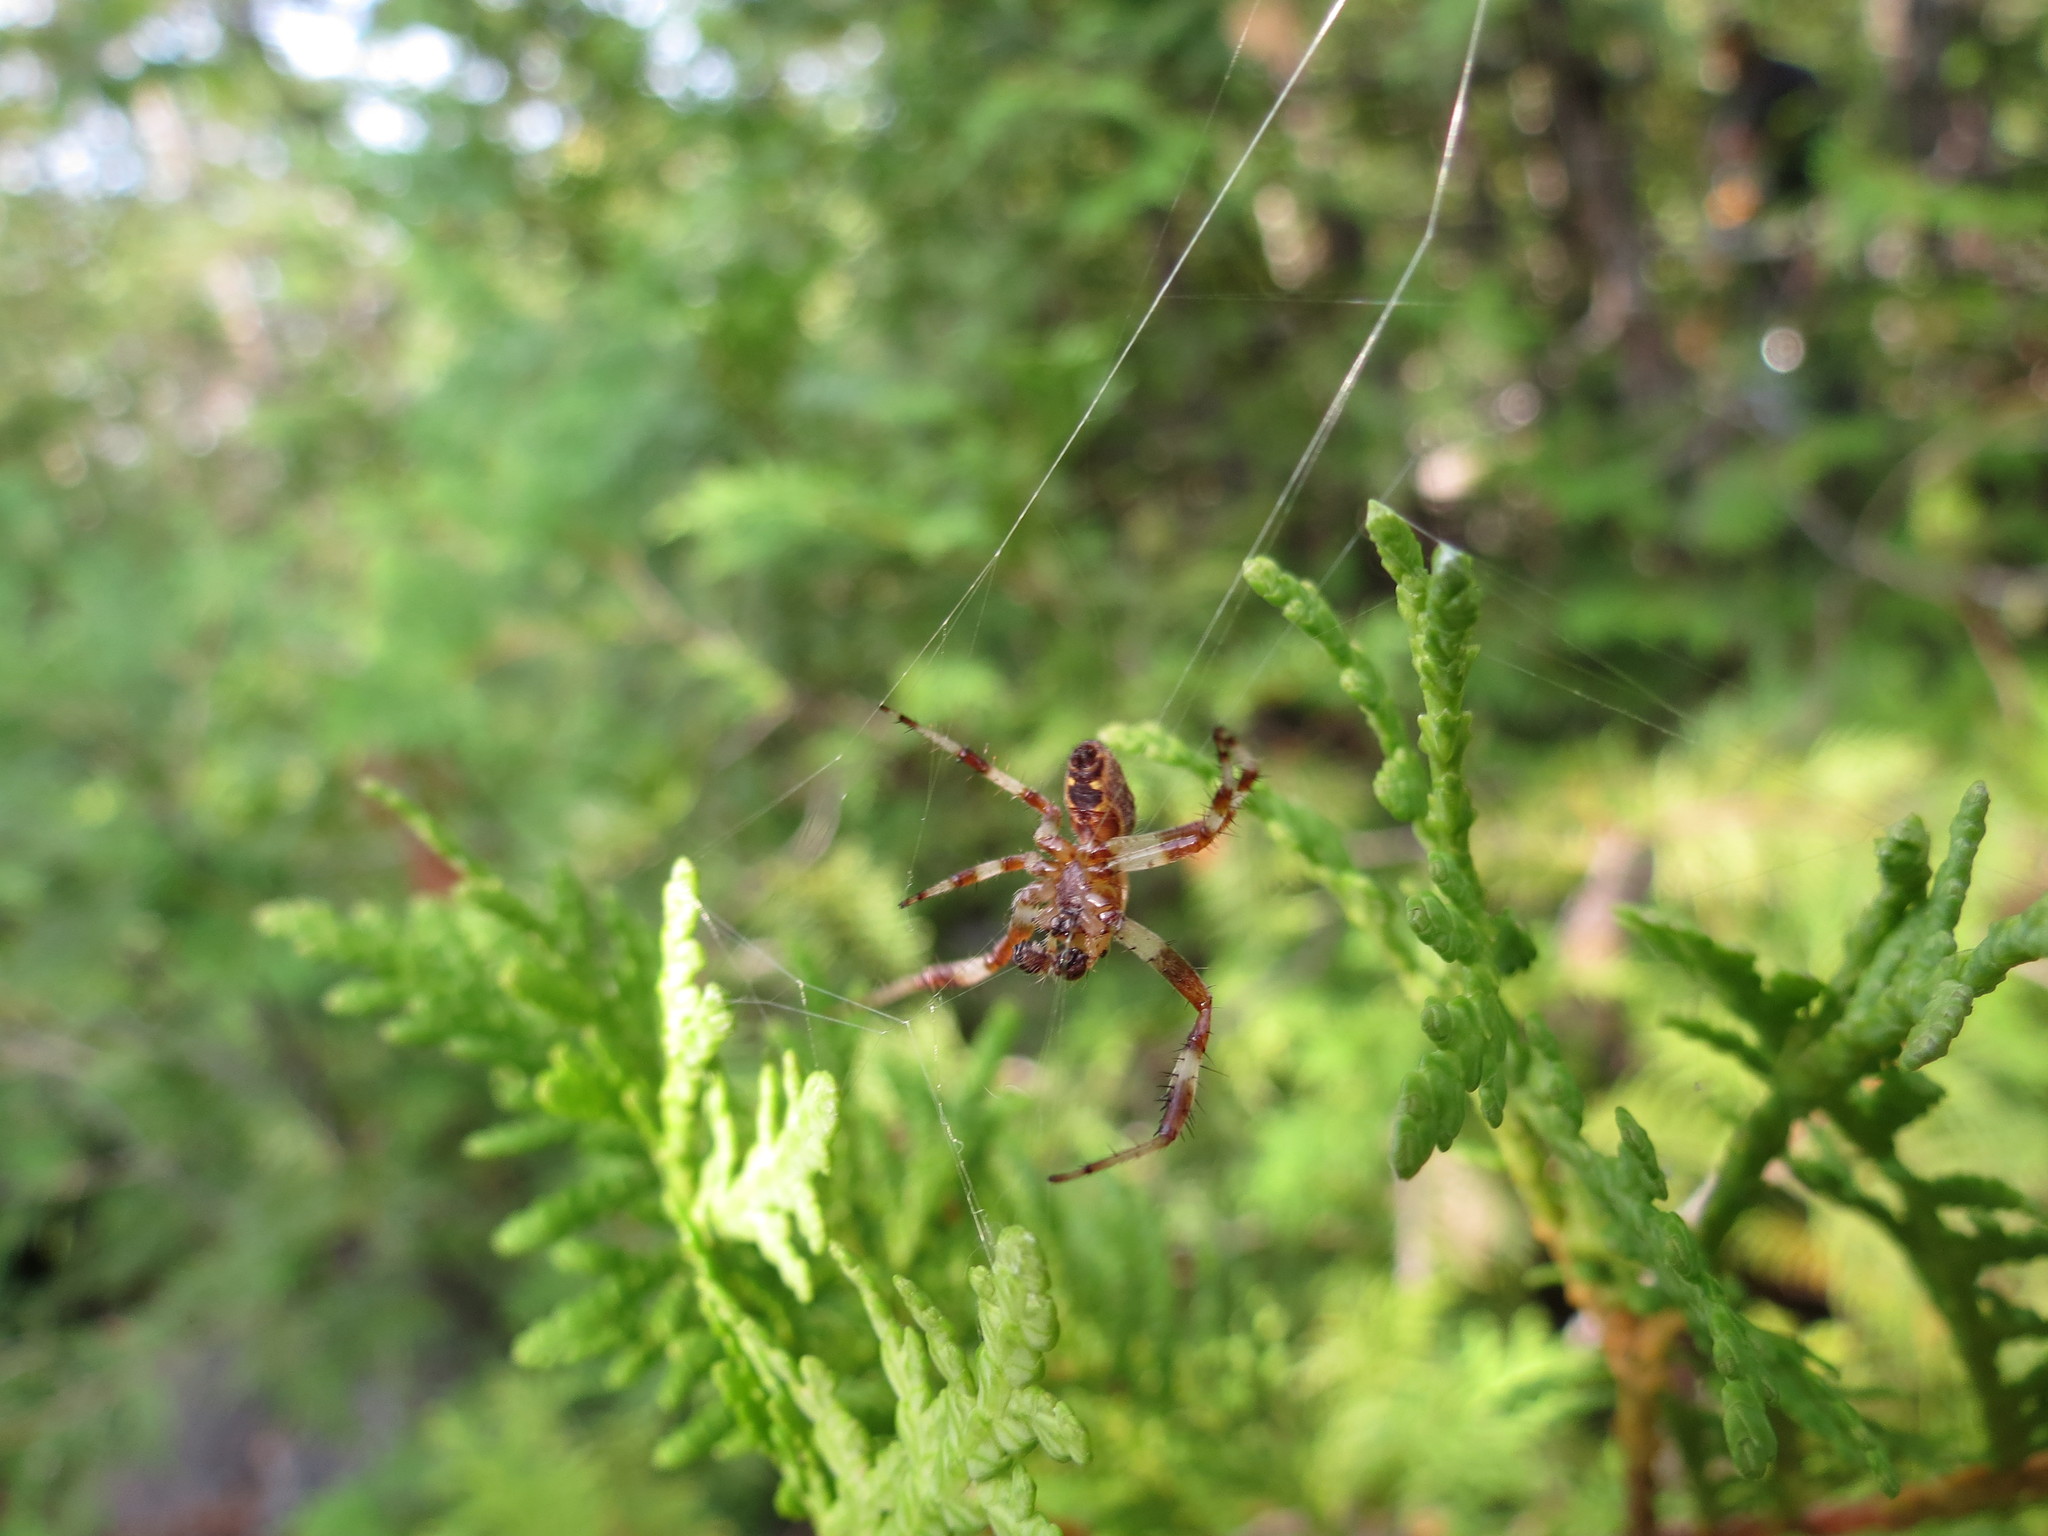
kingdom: Animalia
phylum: Arthropoda
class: Arachnida
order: Araneae
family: Araneidae
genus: Araneus
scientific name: Araneus marmoreus
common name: Marbled orbweaver
